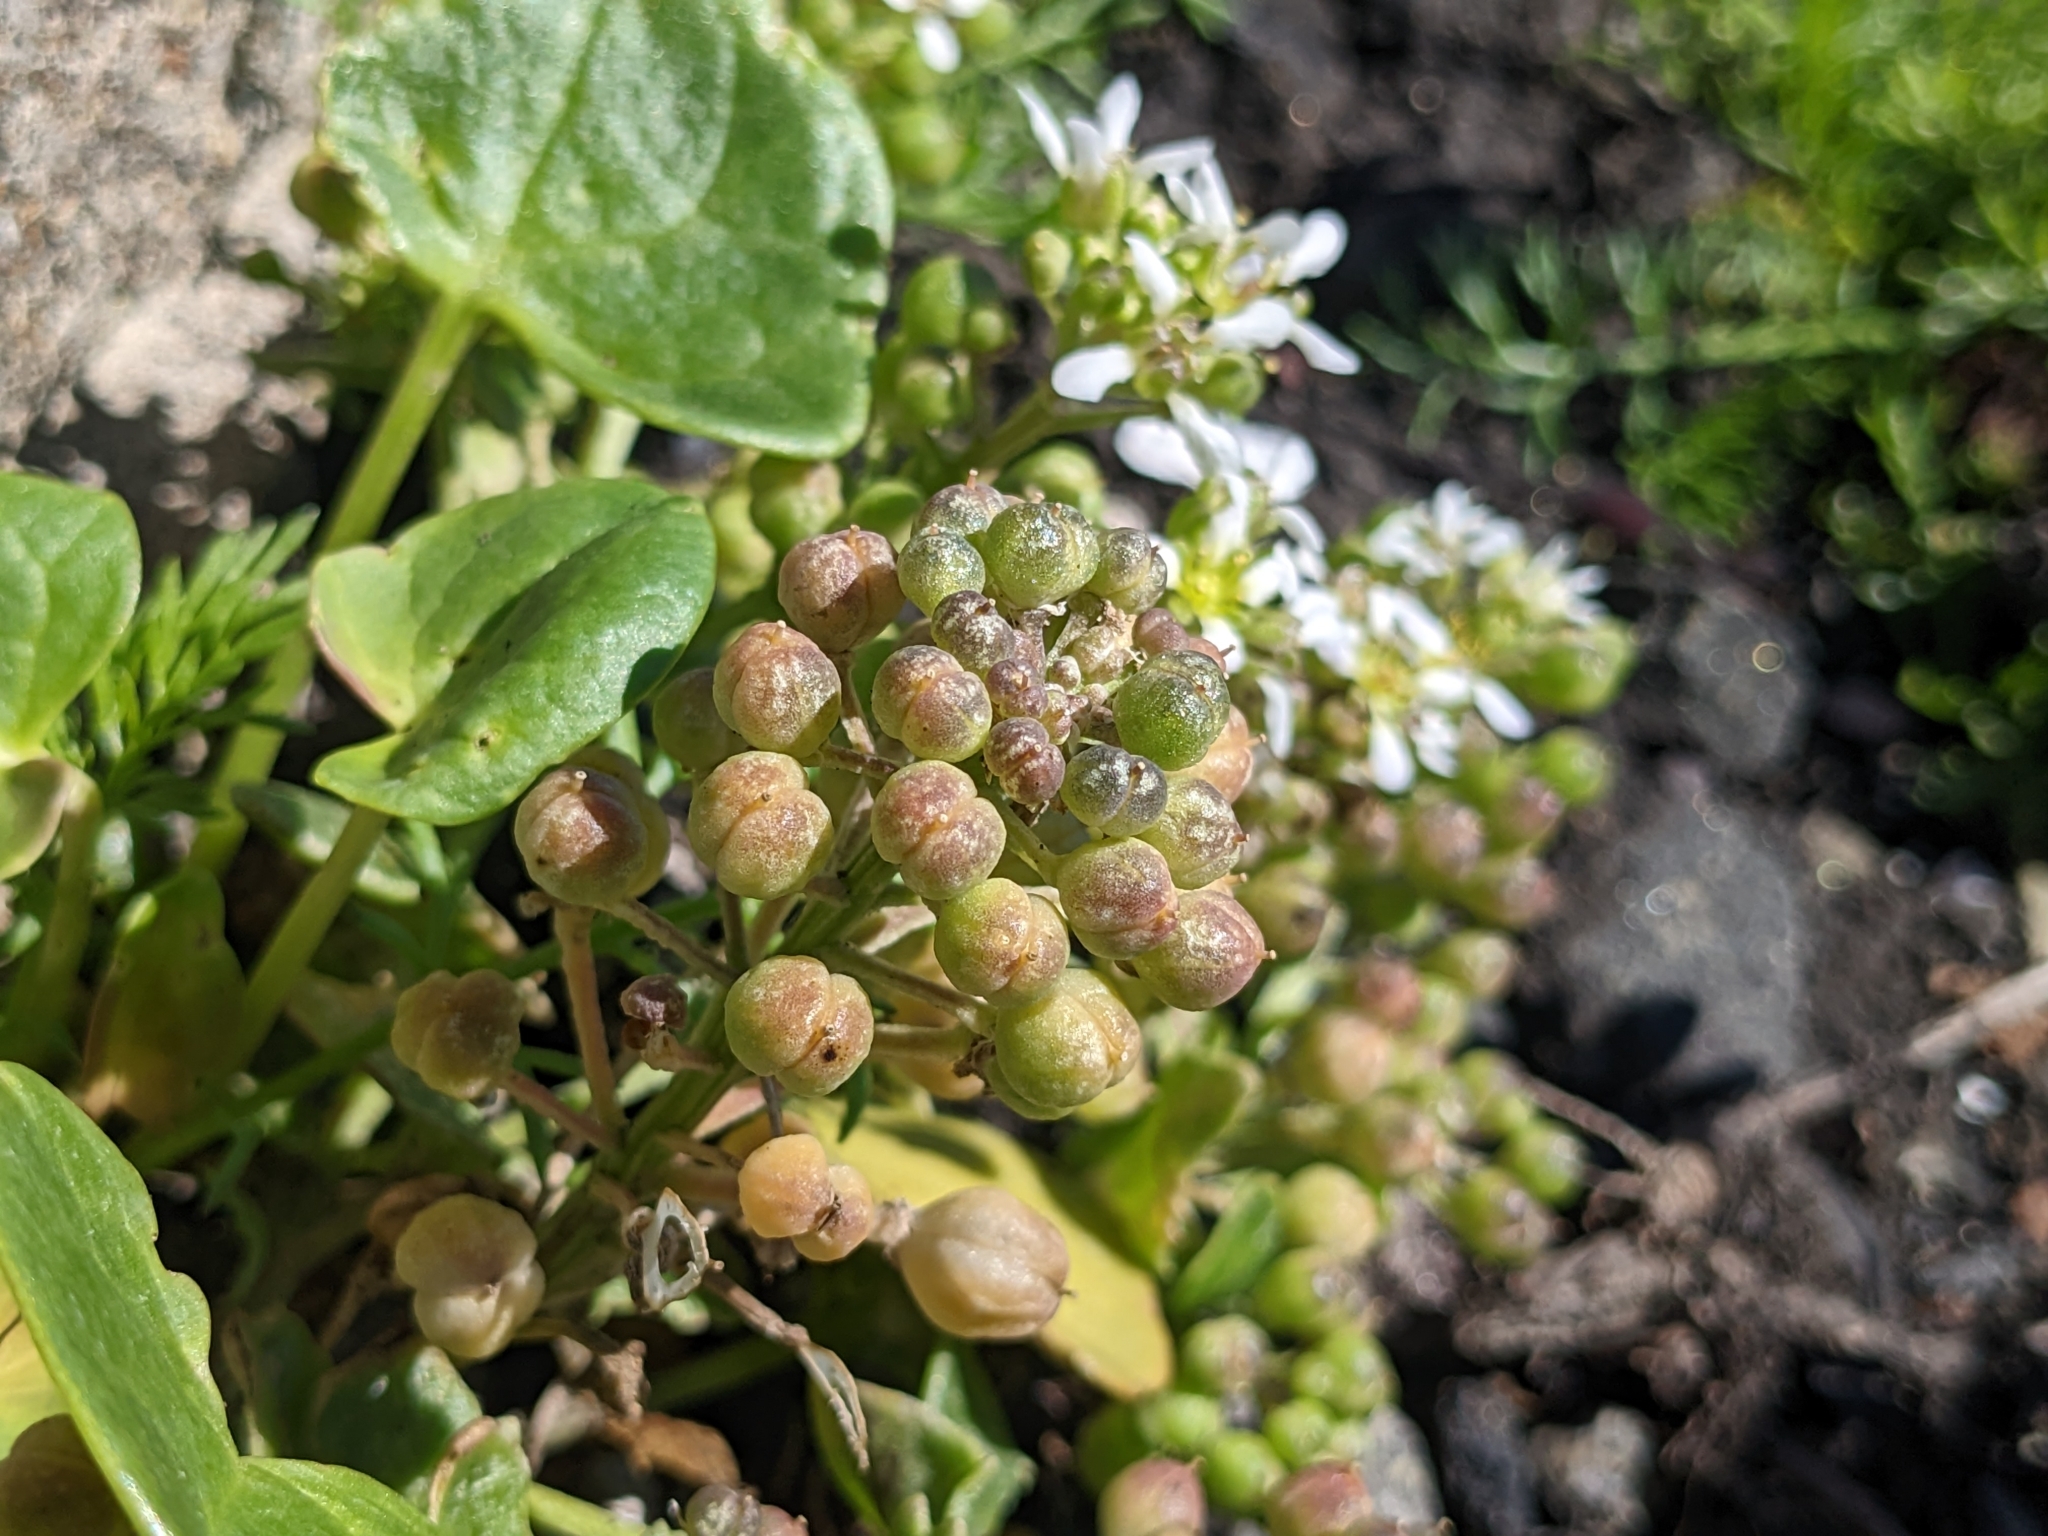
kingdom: Plantae
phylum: Tracheophyta
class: Magnoliopsida
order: Brassicales
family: Brassicaceae
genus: Cochlearia
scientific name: Cochlearia officinalis
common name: Scurvy-grass
